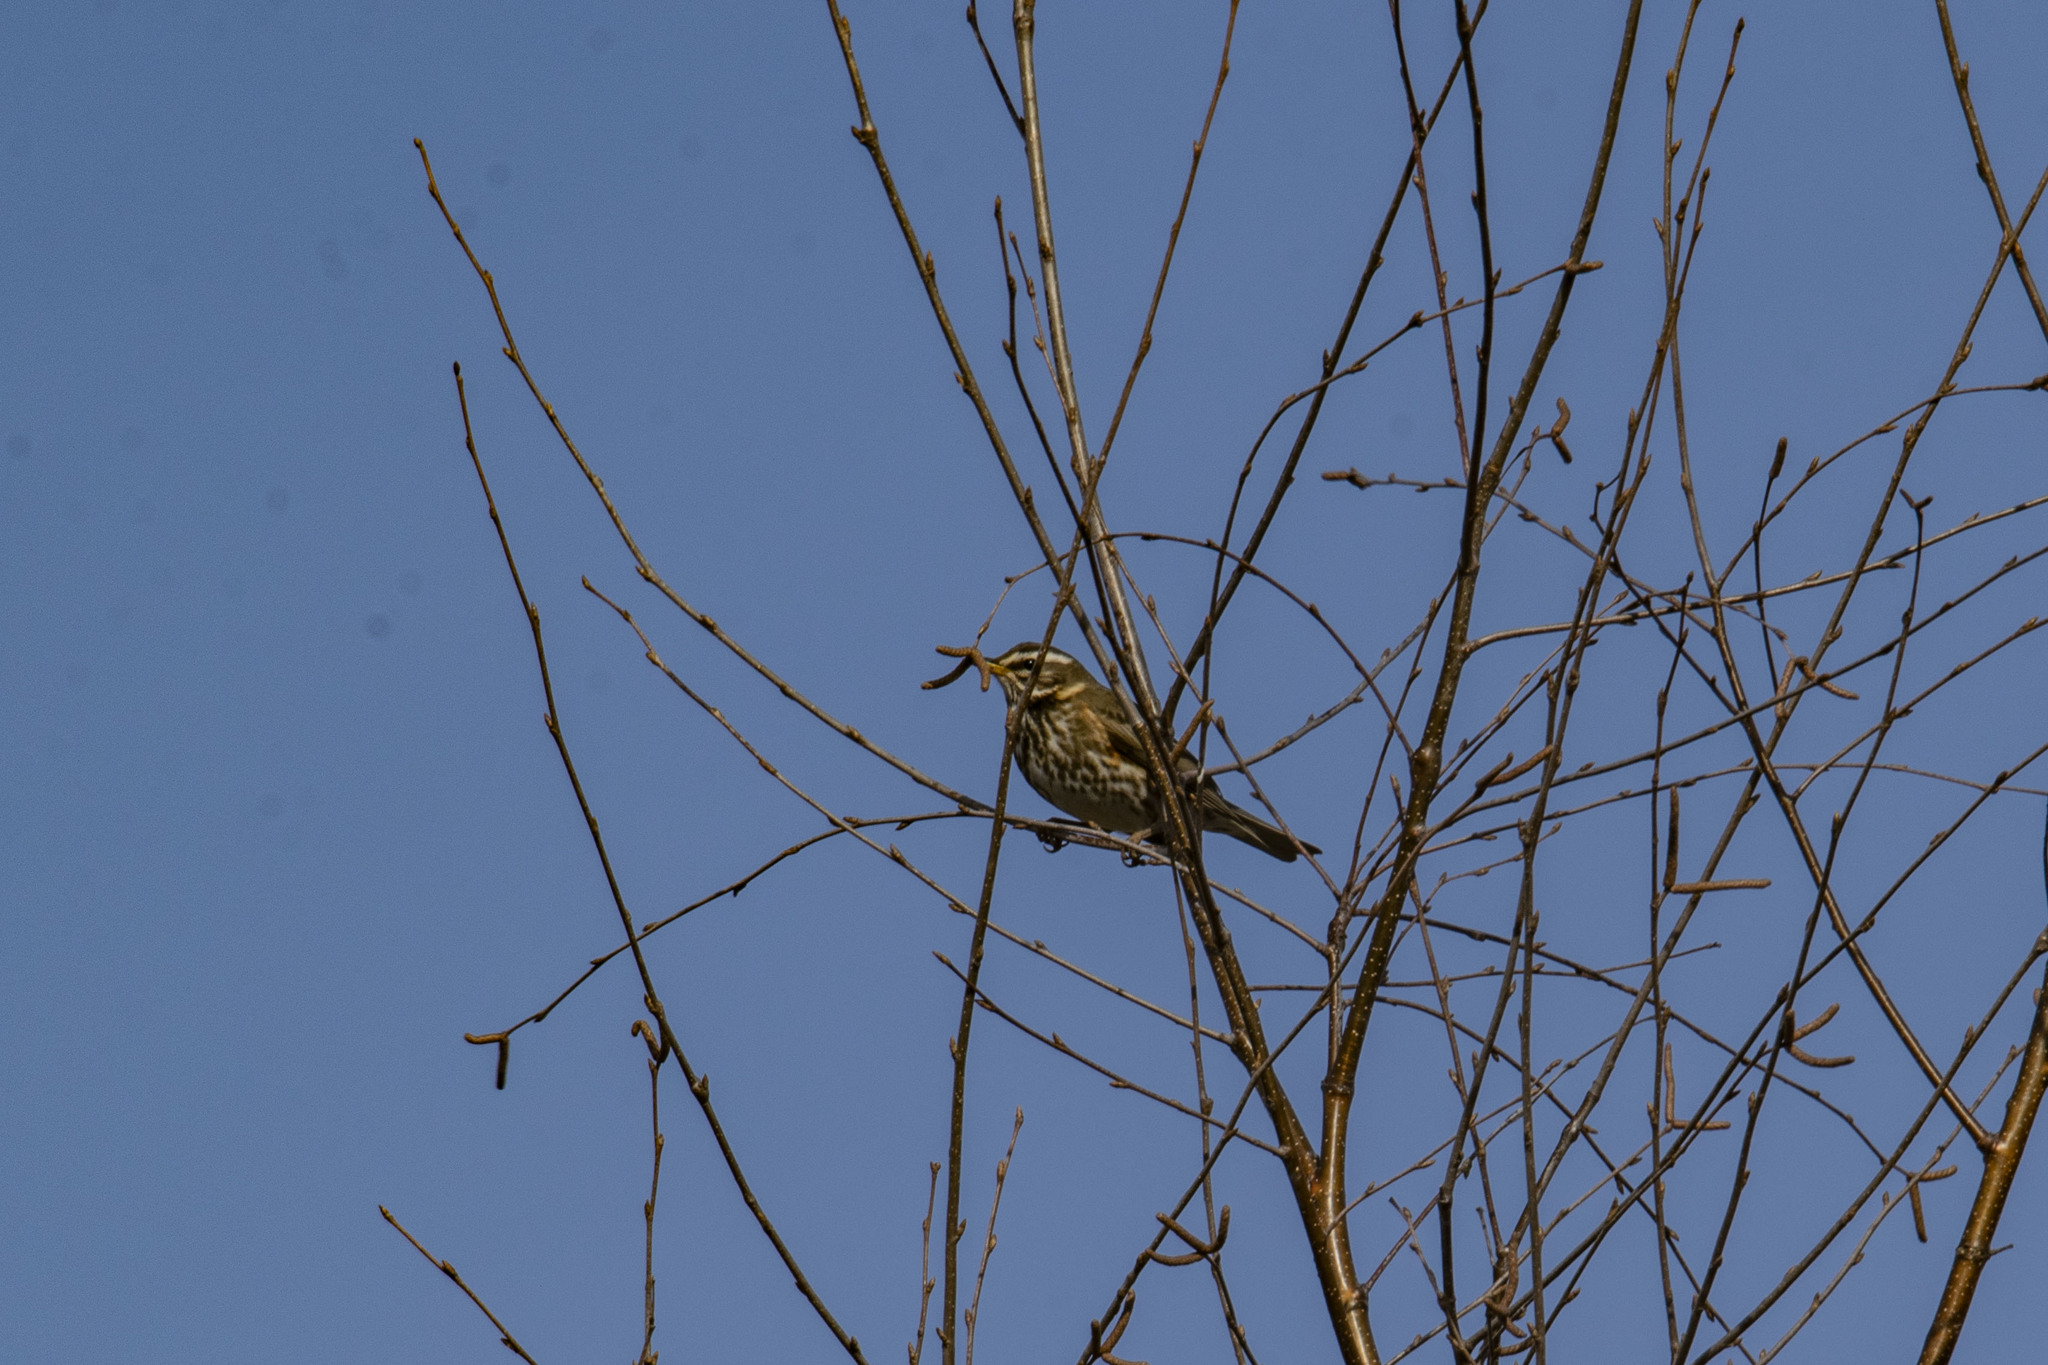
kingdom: Animalia
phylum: Chordata
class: Aves
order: Passeriformes
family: Turdidae
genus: Turdus
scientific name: Turdus iliacus
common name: Redwing
